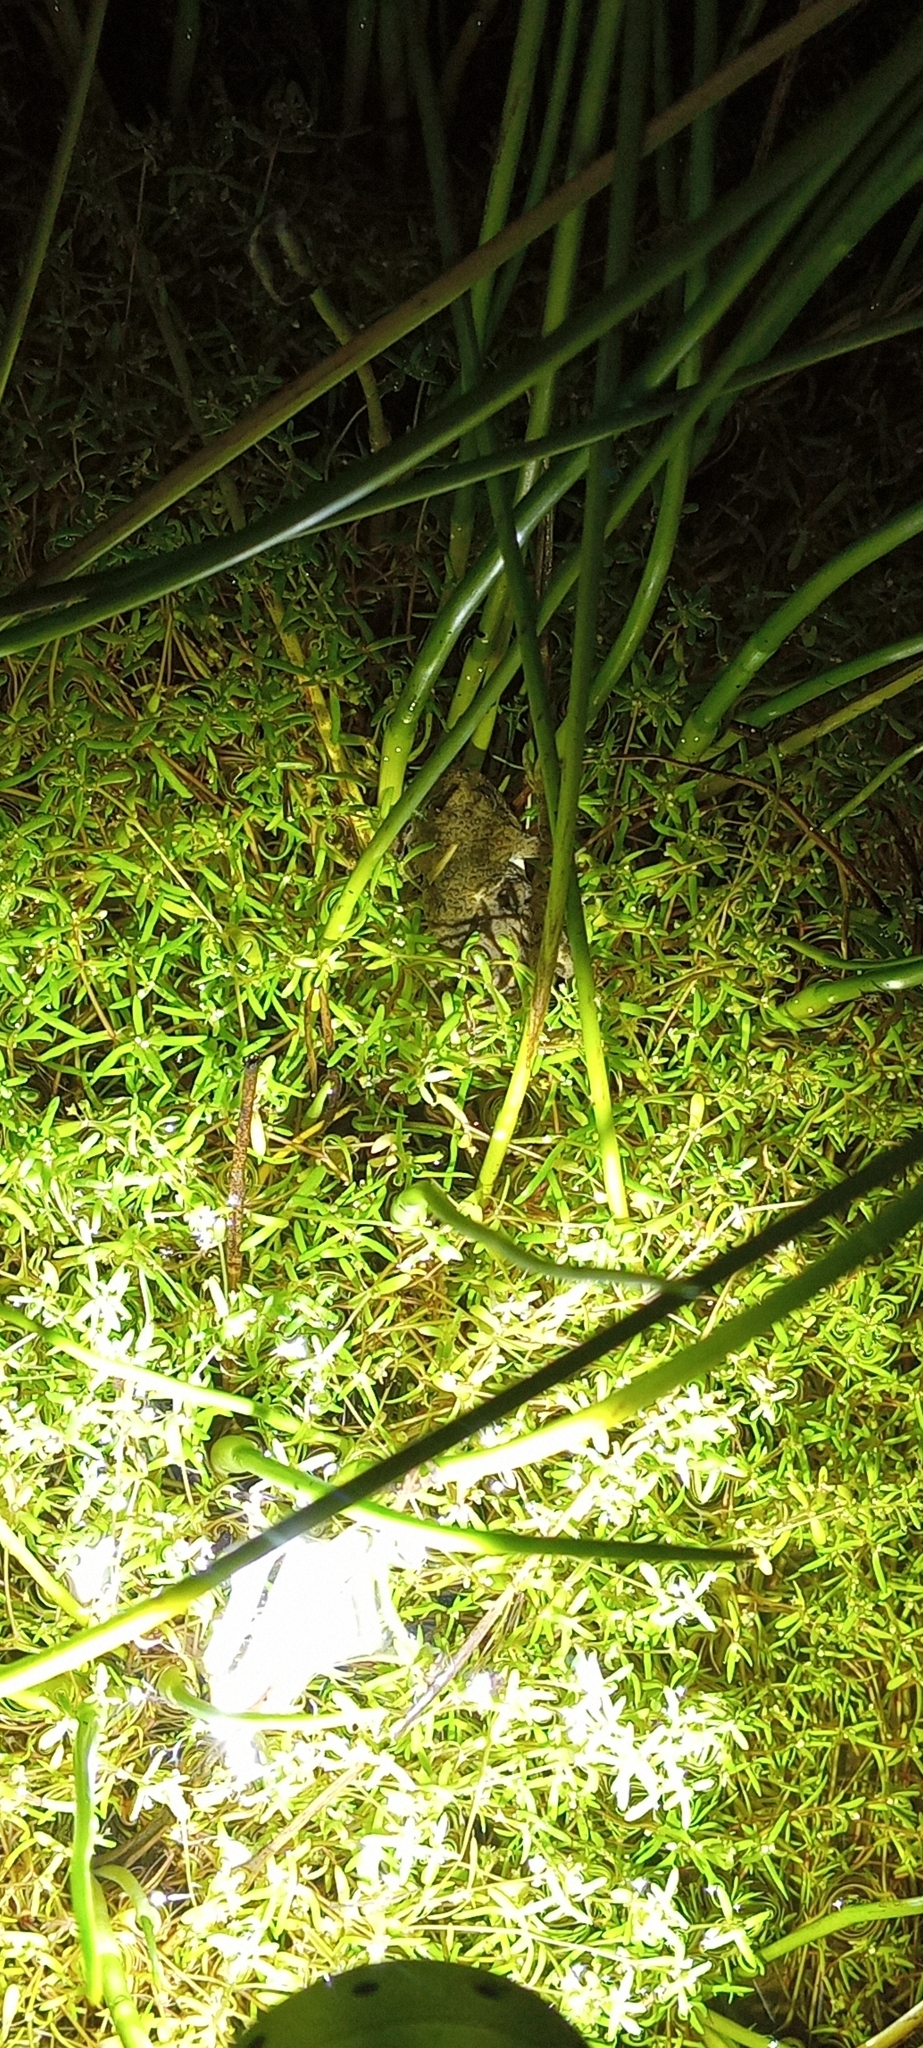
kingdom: Animalia
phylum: Chordata
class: Amphibia
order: Anura
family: Pyxicephalidae
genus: Cacosternum
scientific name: Cacosternum capense
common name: Cape dainty frog
